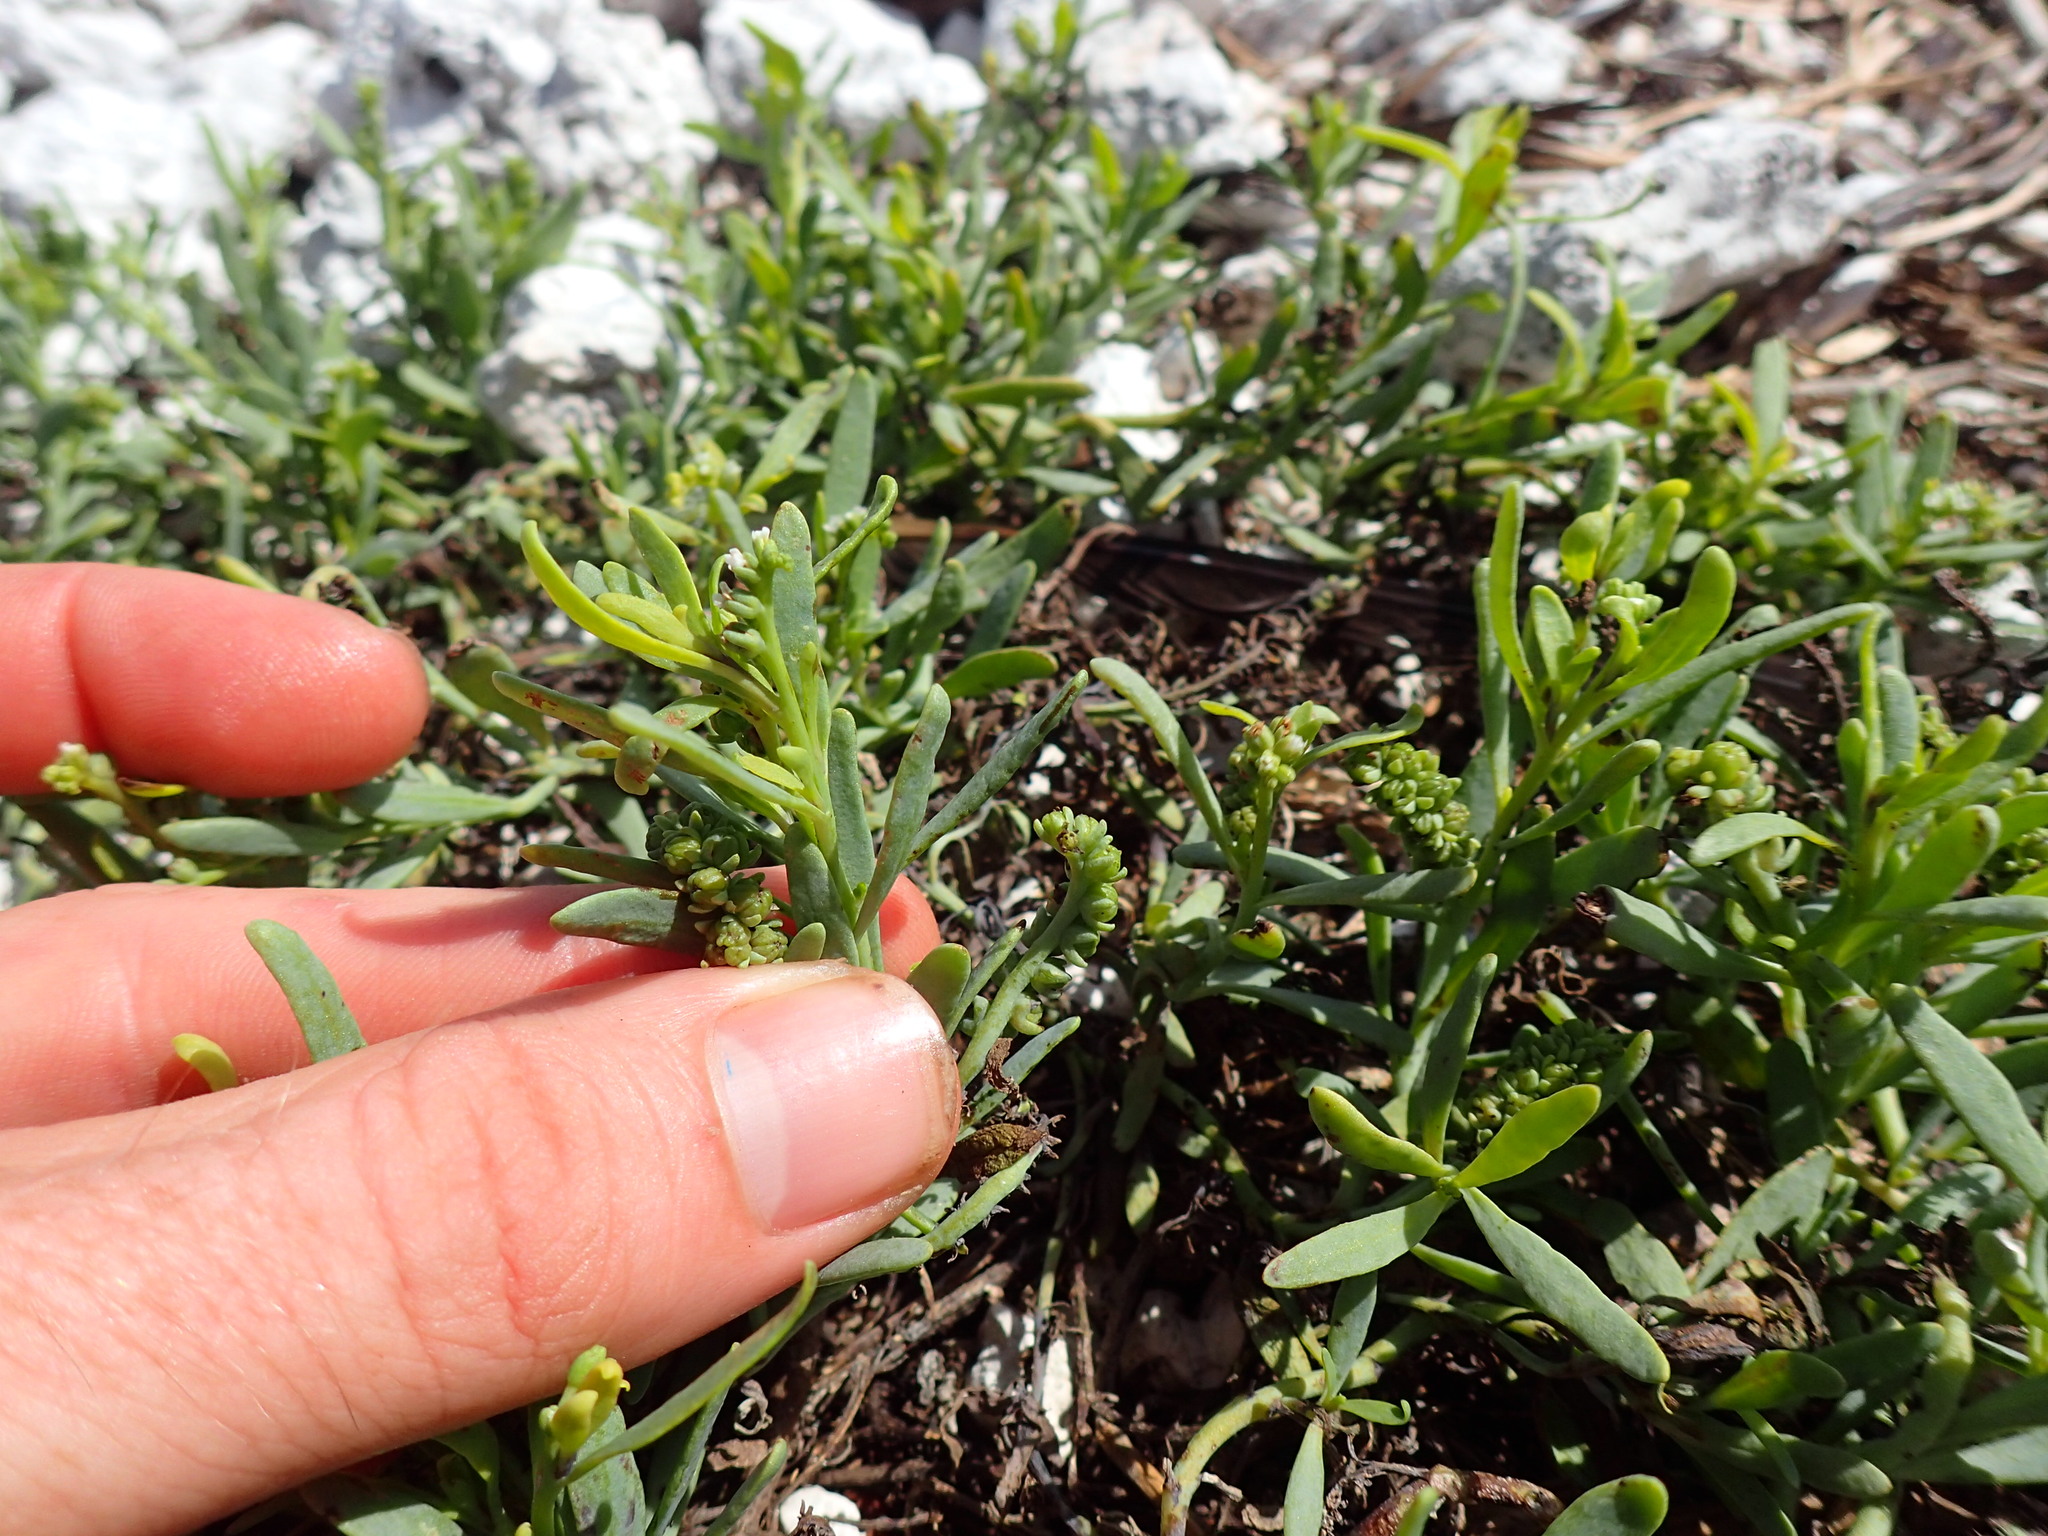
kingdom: Plantae
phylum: Tracheophyta
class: Magnoliopsida
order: Boraginales
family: Heliotropiaceae
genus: Heliotropium
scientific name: Heliotropium curassavicum
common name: Seaside heliotrope
